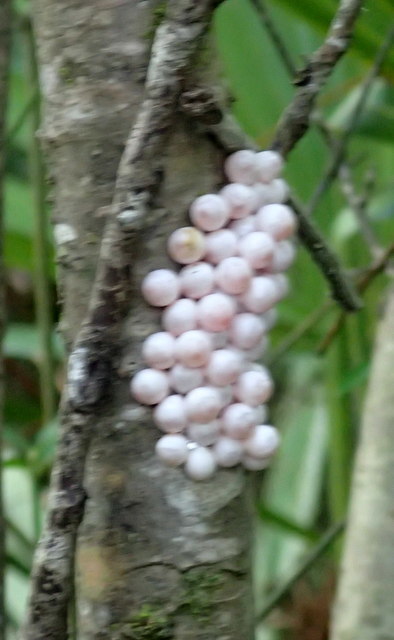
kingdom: Animalia
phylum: Mollusca
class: Gastropoda
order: Architaenioglossa
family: Ampullariidae
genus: Pomacea
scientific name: Pomacea paludosa
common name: Florida applesnail
